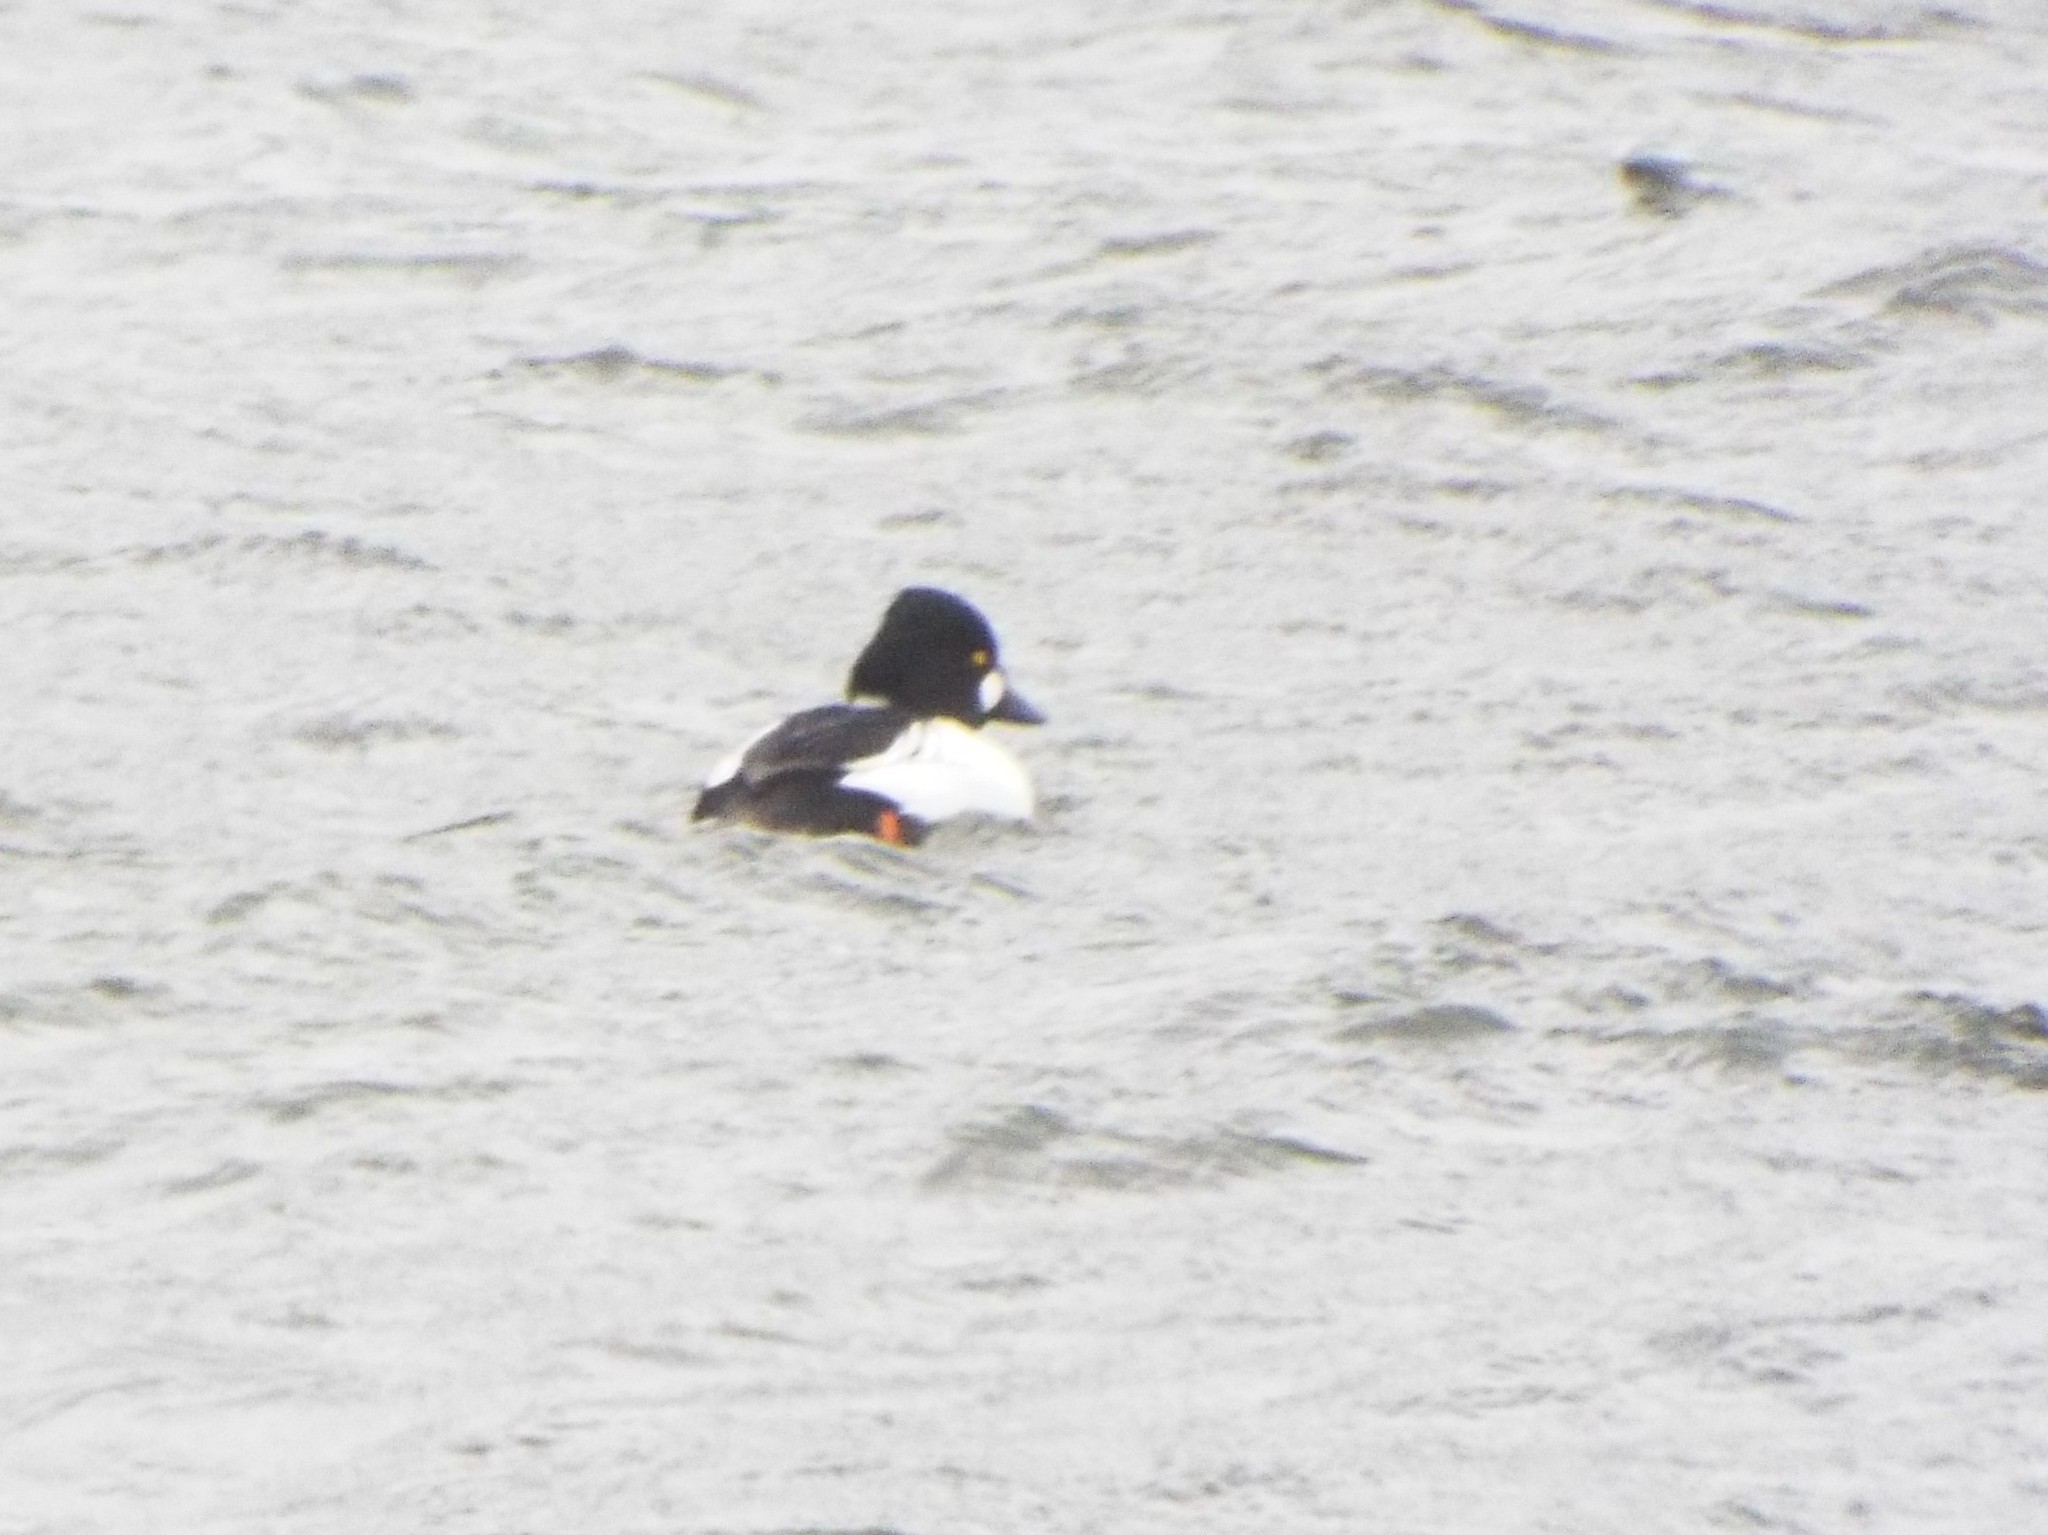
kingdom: Animalia
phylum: Chordata
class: Aves
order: Anseriformes
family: Anatidae
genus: Bucephala
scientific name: Bucephala clangula
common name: Common goldeneye
